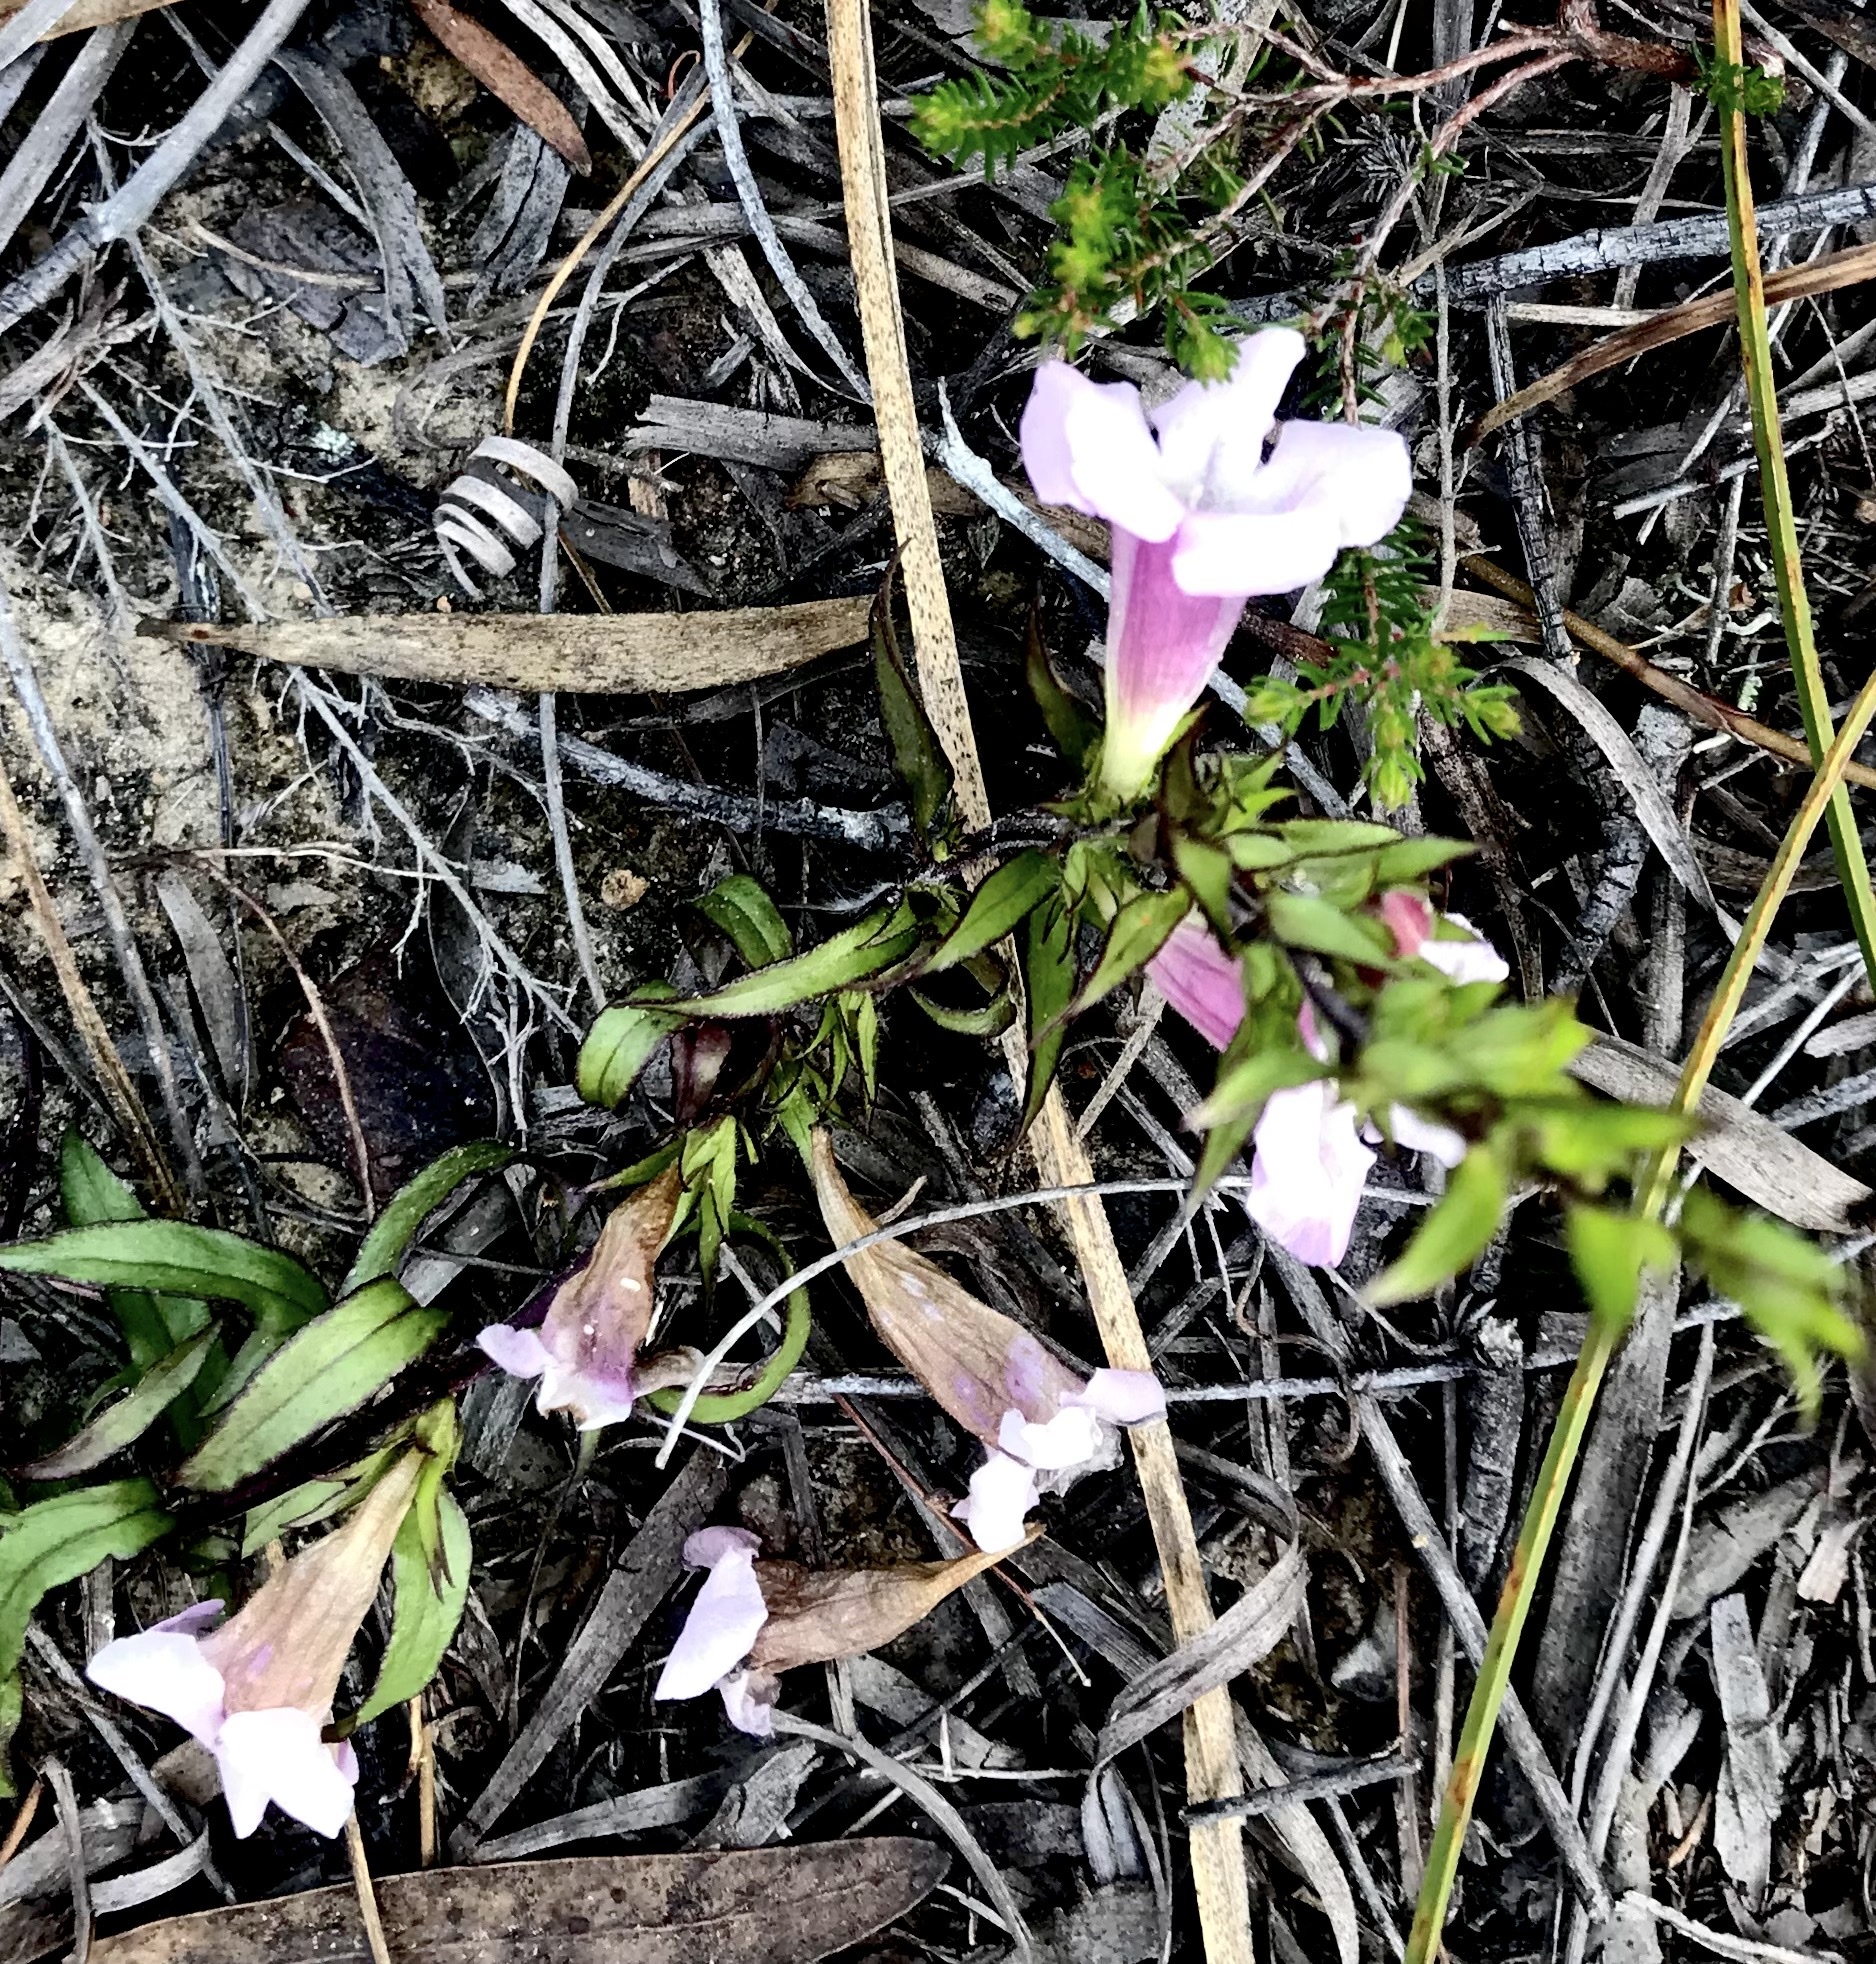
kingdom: Plantae
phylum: Tracheophyta
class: Magnoliopsida
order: Lamiales
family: Orobanchaceae
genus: Graderia
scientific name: Graderia scabra
